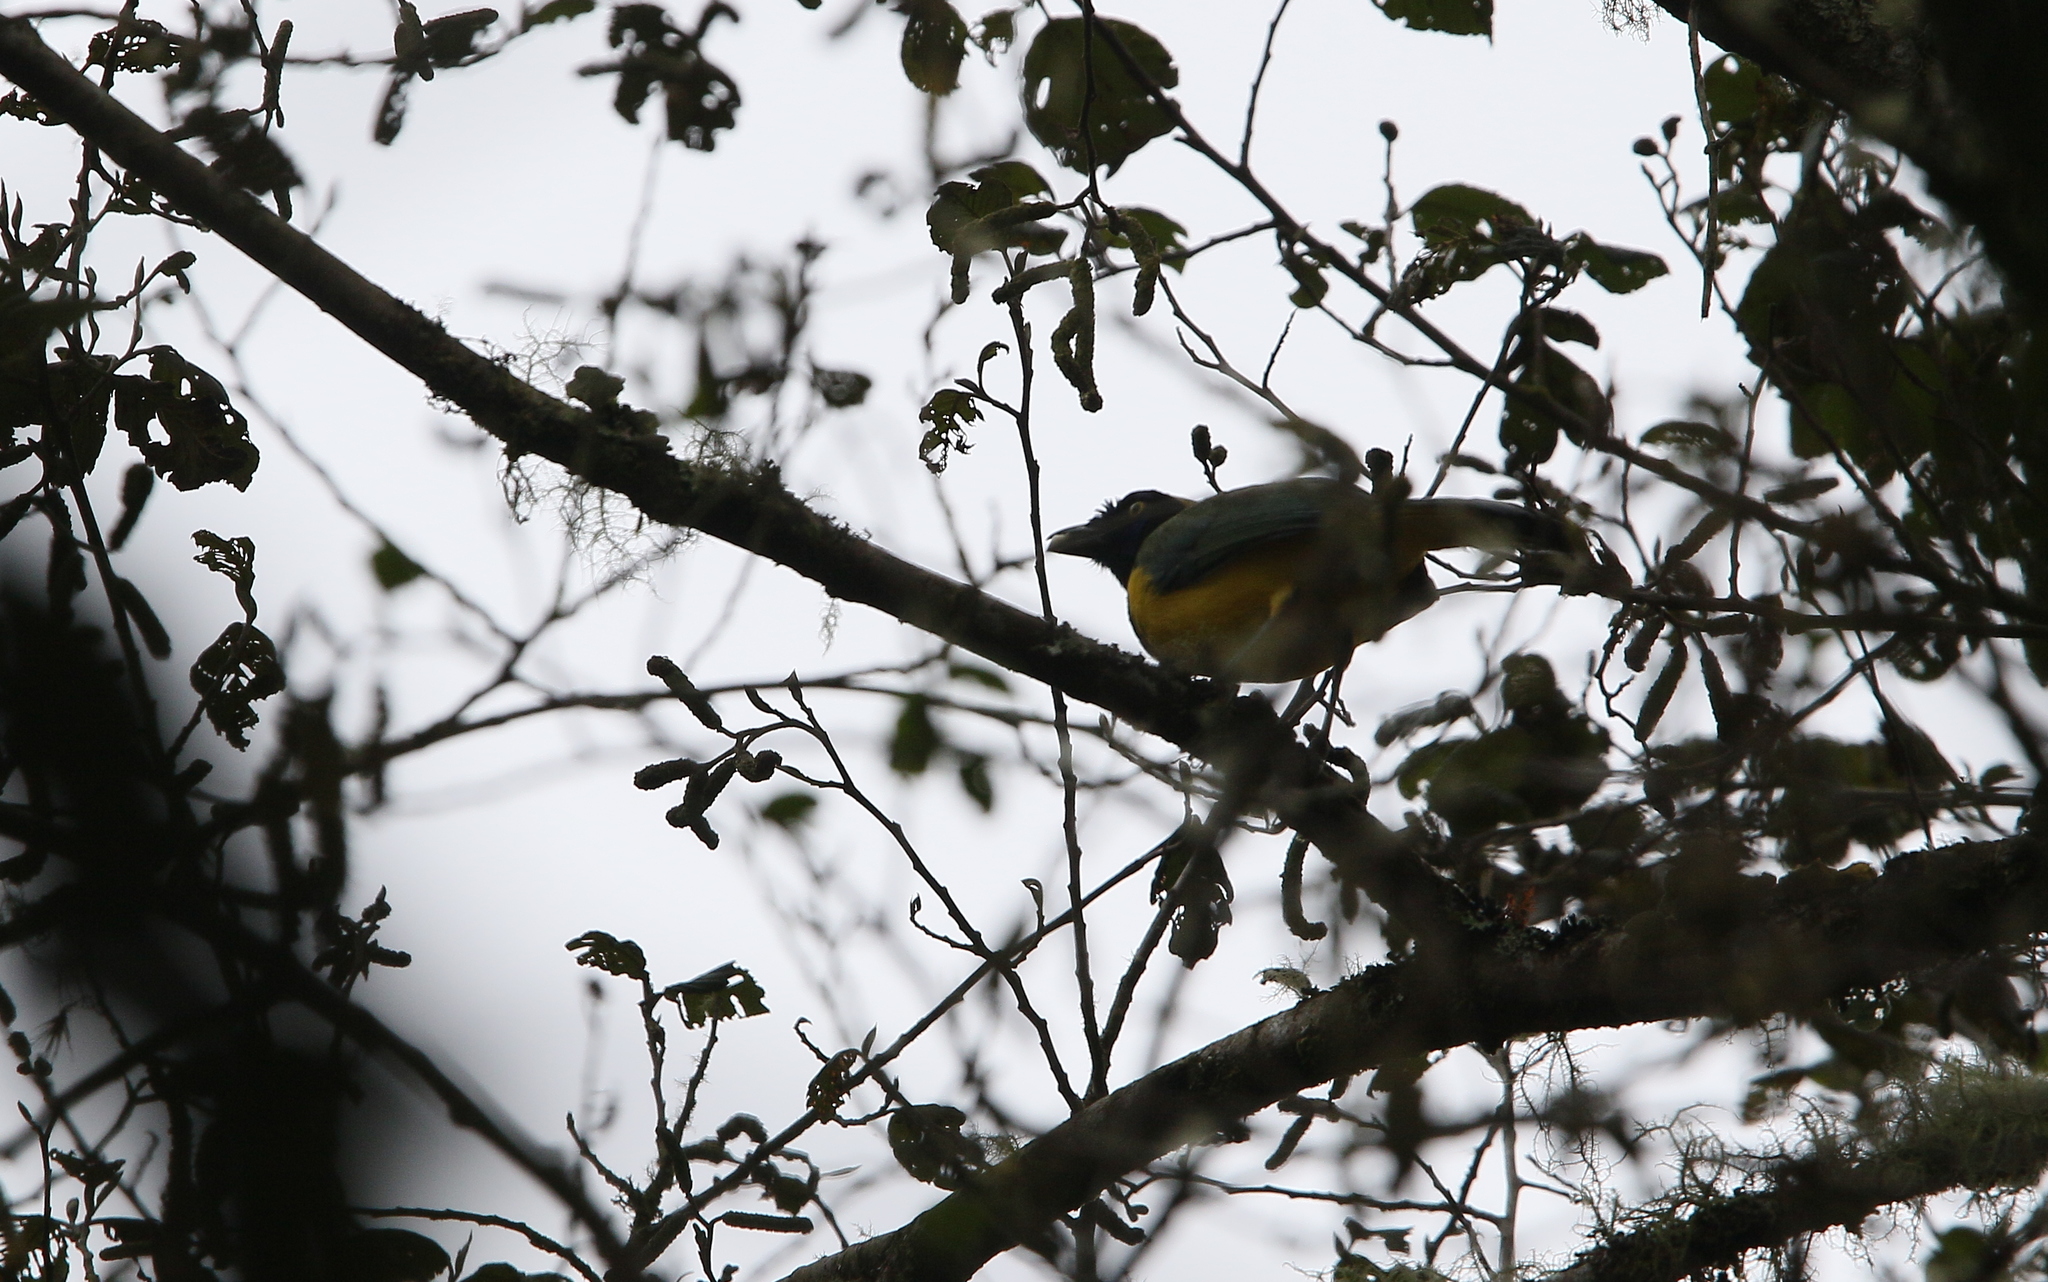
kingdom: Animalia
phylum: Chordata
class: Aves
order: Passeriformes
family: Corvidae
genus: Cyanocorax
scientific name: Cyanocorax yncas
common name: Green jay
